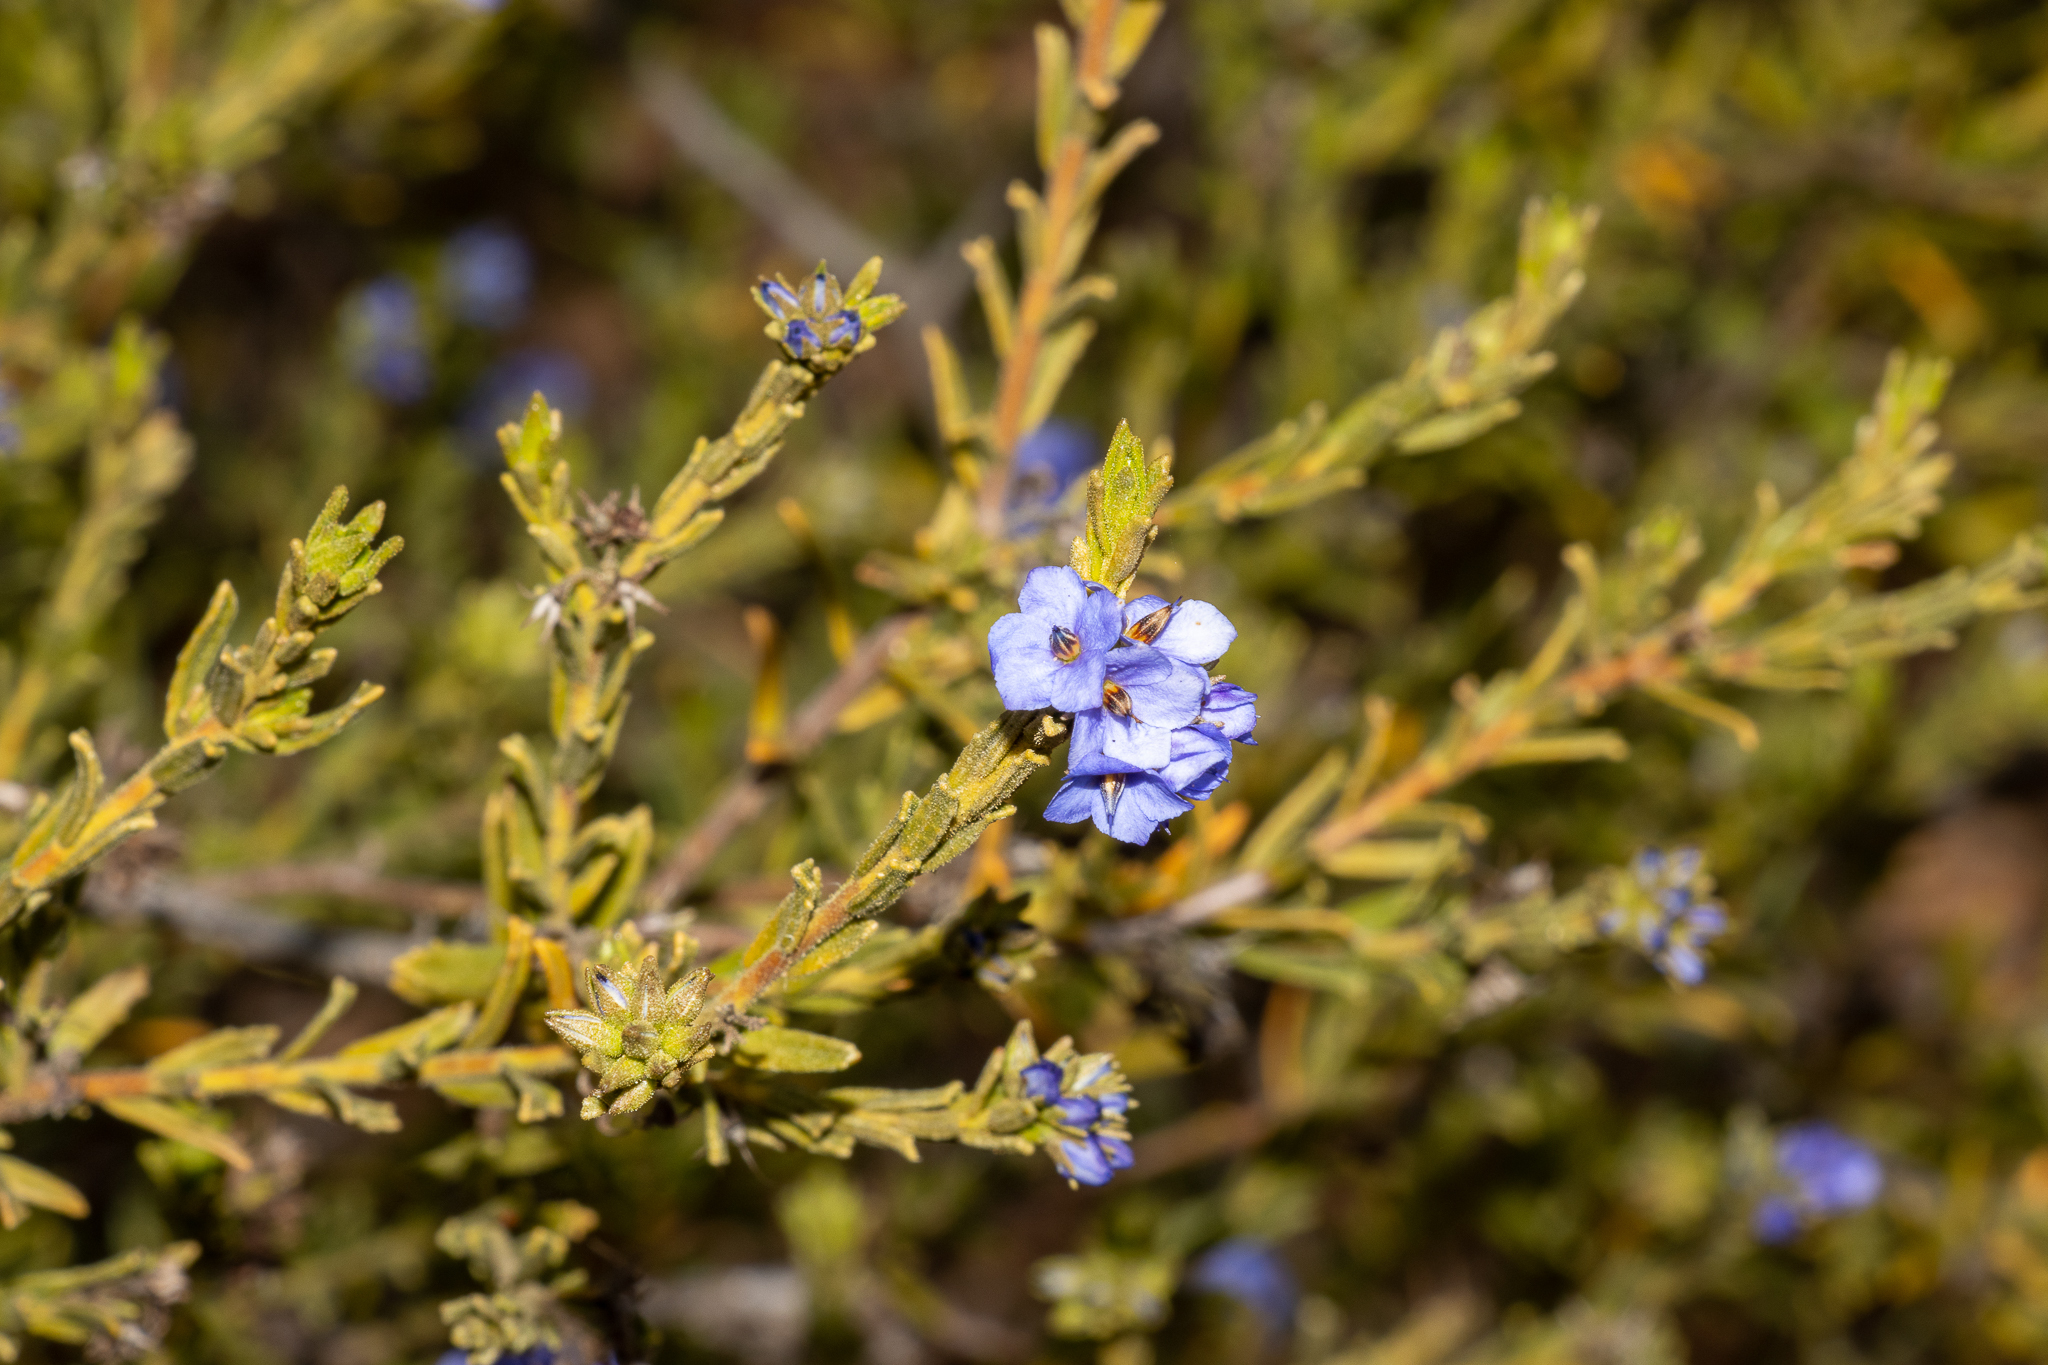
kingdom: Plantae
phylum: Tracheophyta
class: Magnoliopsida
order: Boraginales
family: Ehretiaceae
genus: Halgania
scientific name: Halgania cyanea
